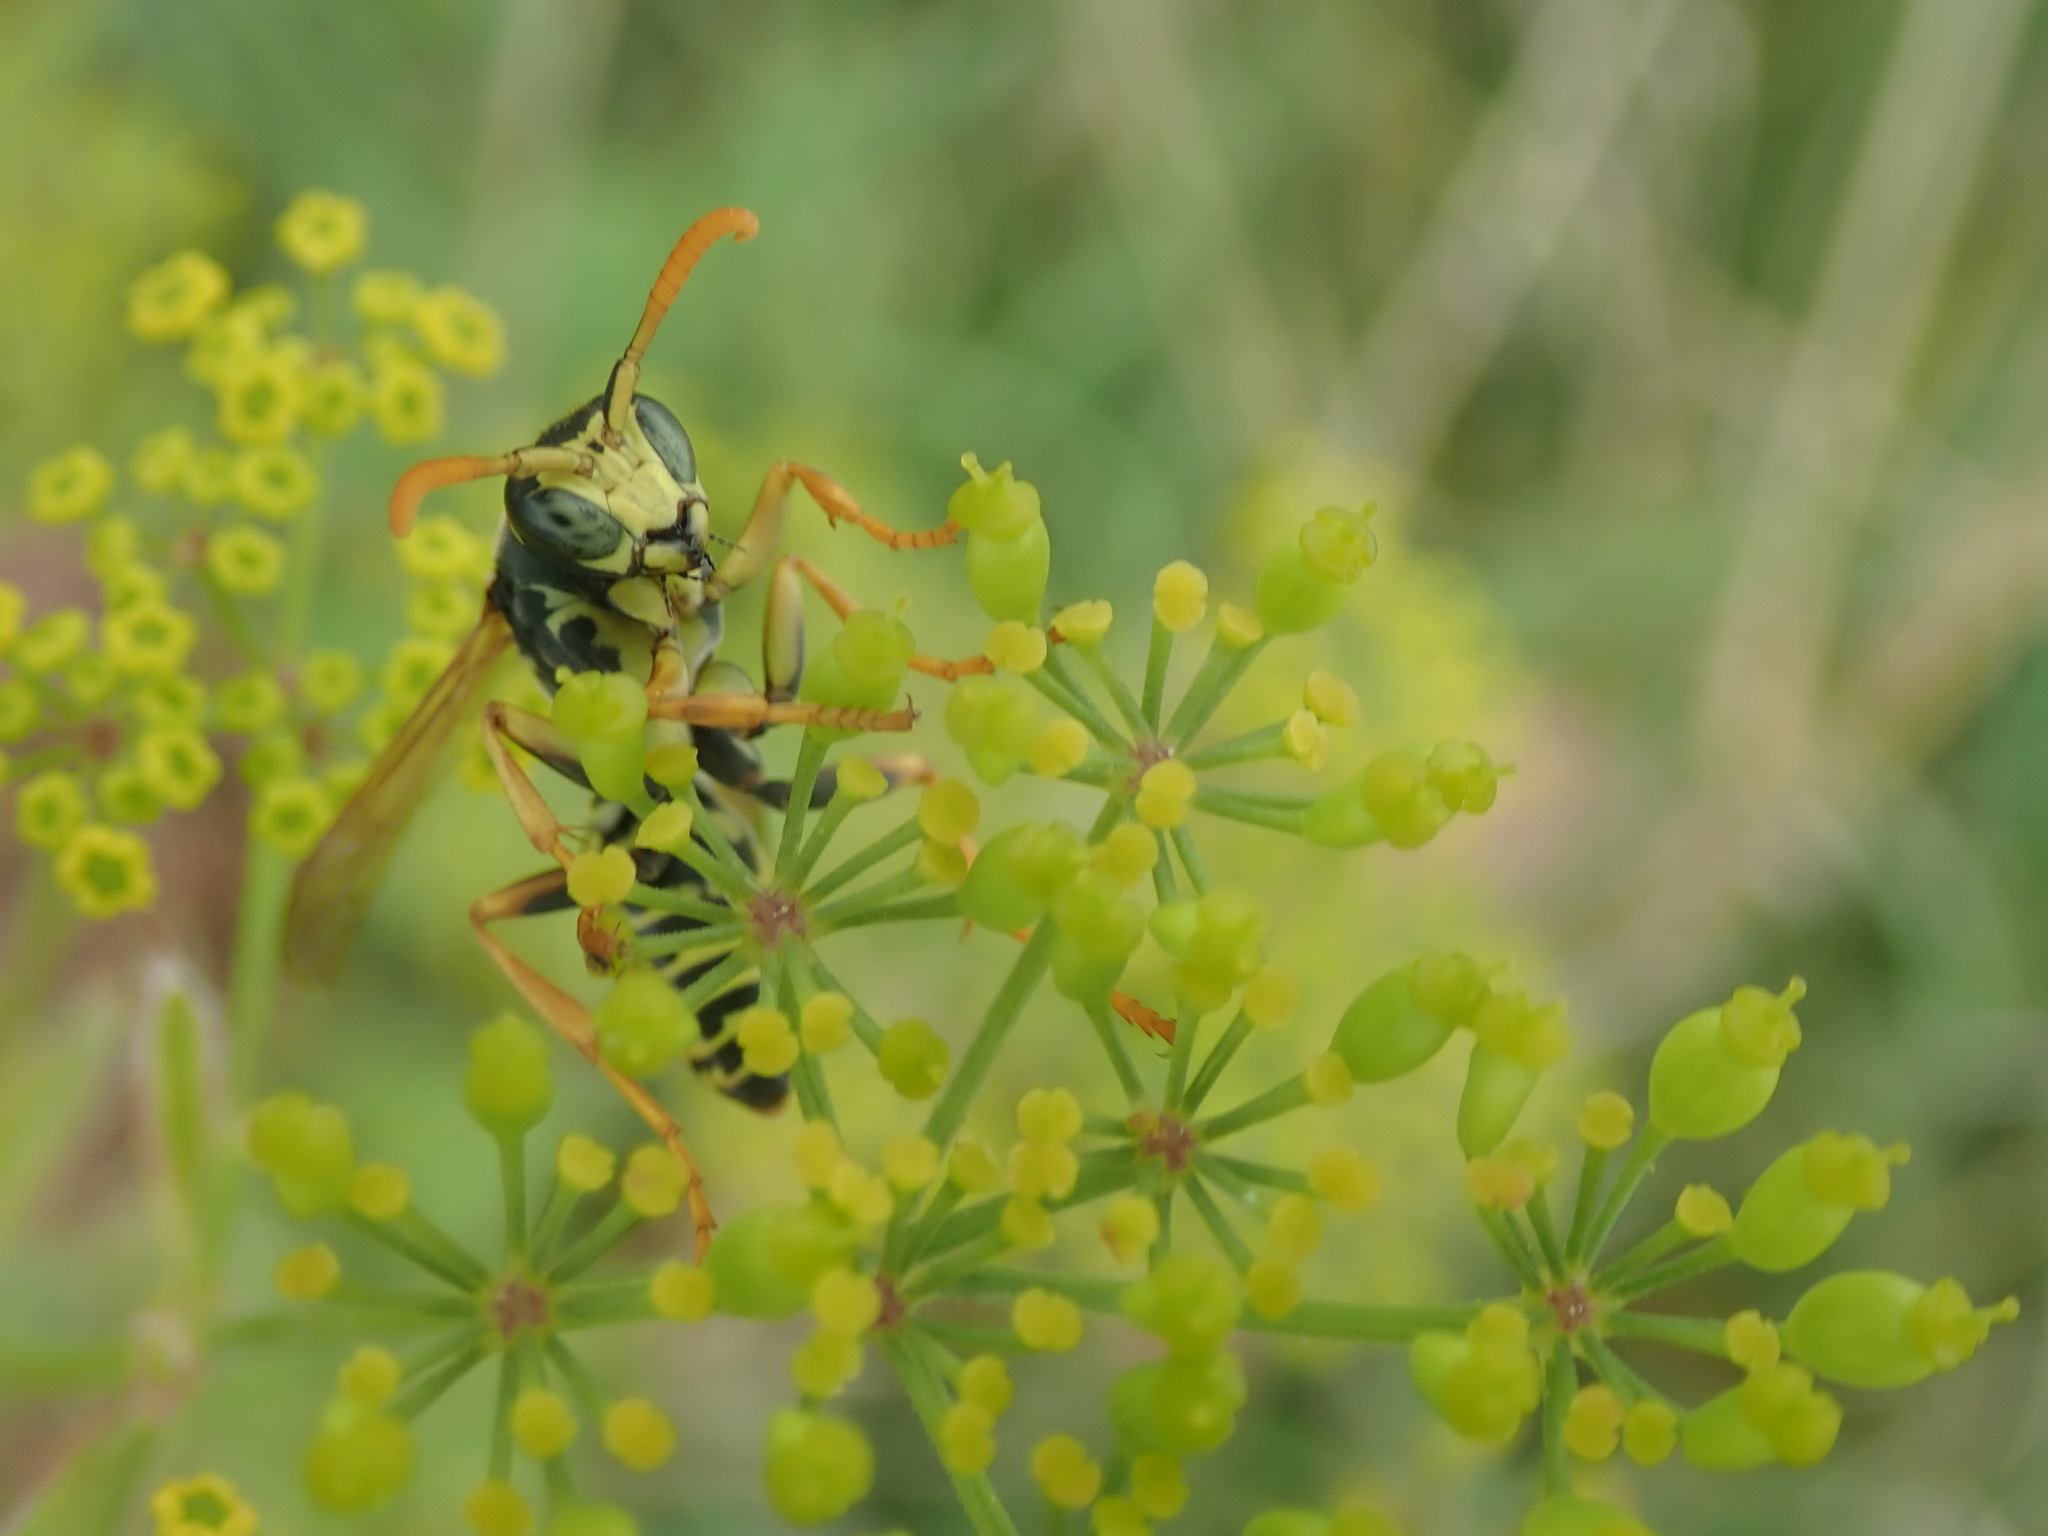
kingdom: Animalia
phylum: Arthropoda
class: Insecta
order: Hymenoptera
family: Eumenidae
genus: Polistes
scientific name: Polistes dominula
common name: Paper wasp
